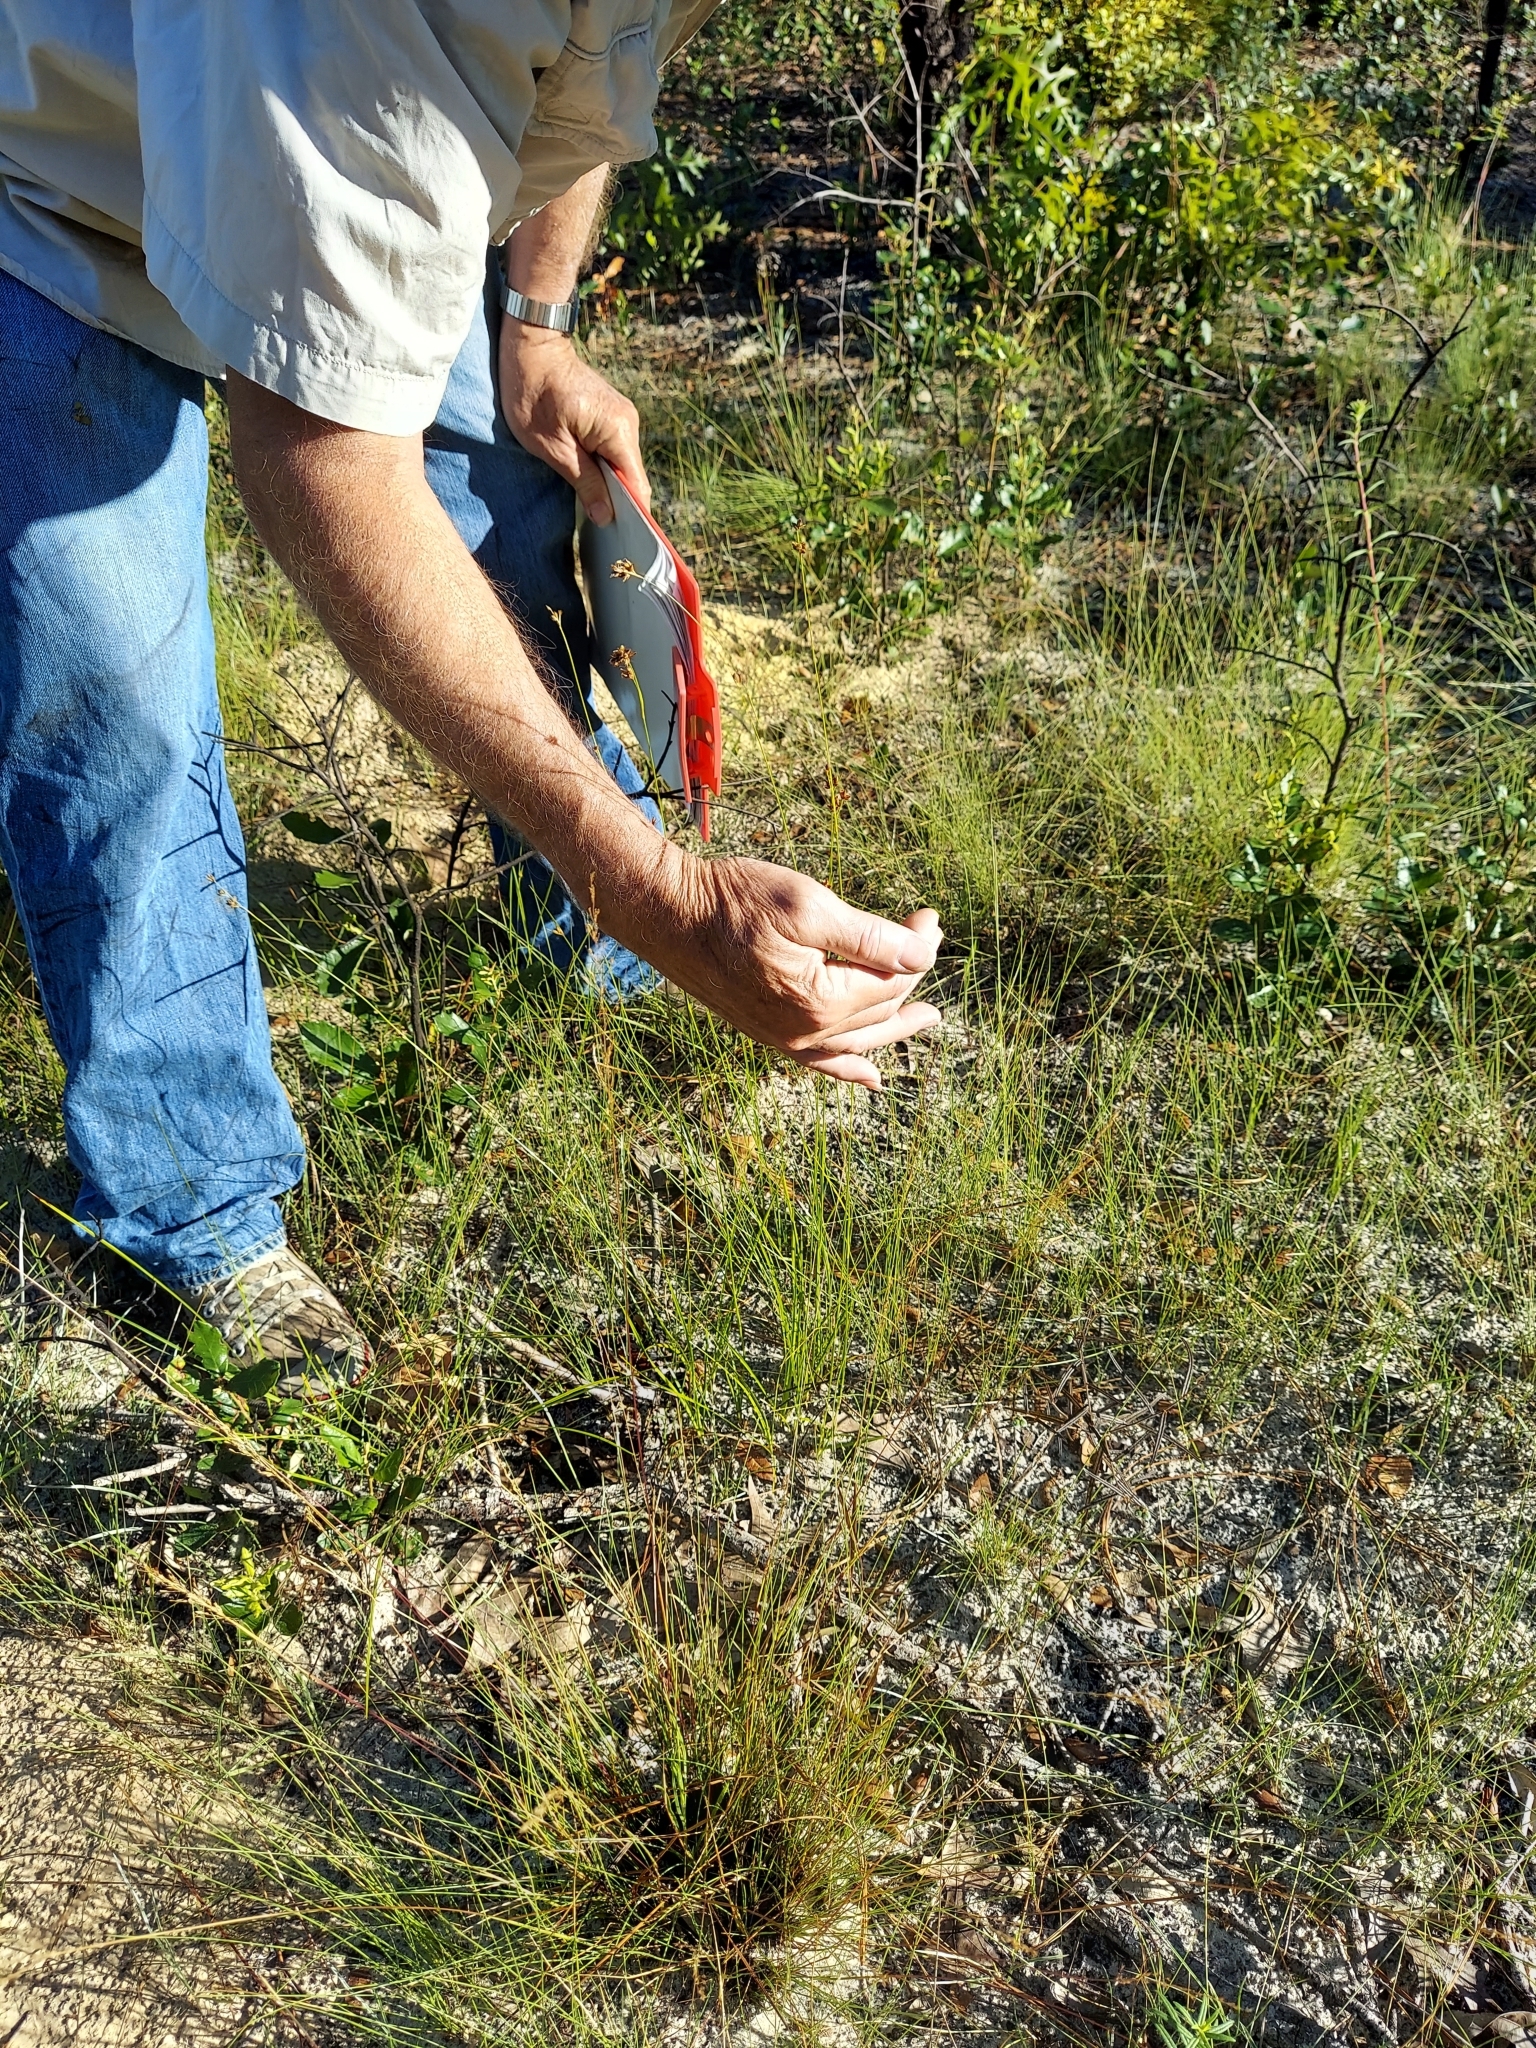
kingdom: Plantae
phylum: Tracheophyta
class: Liliopsida
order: Poales
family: Cyperaceae
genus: Rhynchospora
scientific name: Rhynchospora grayi
